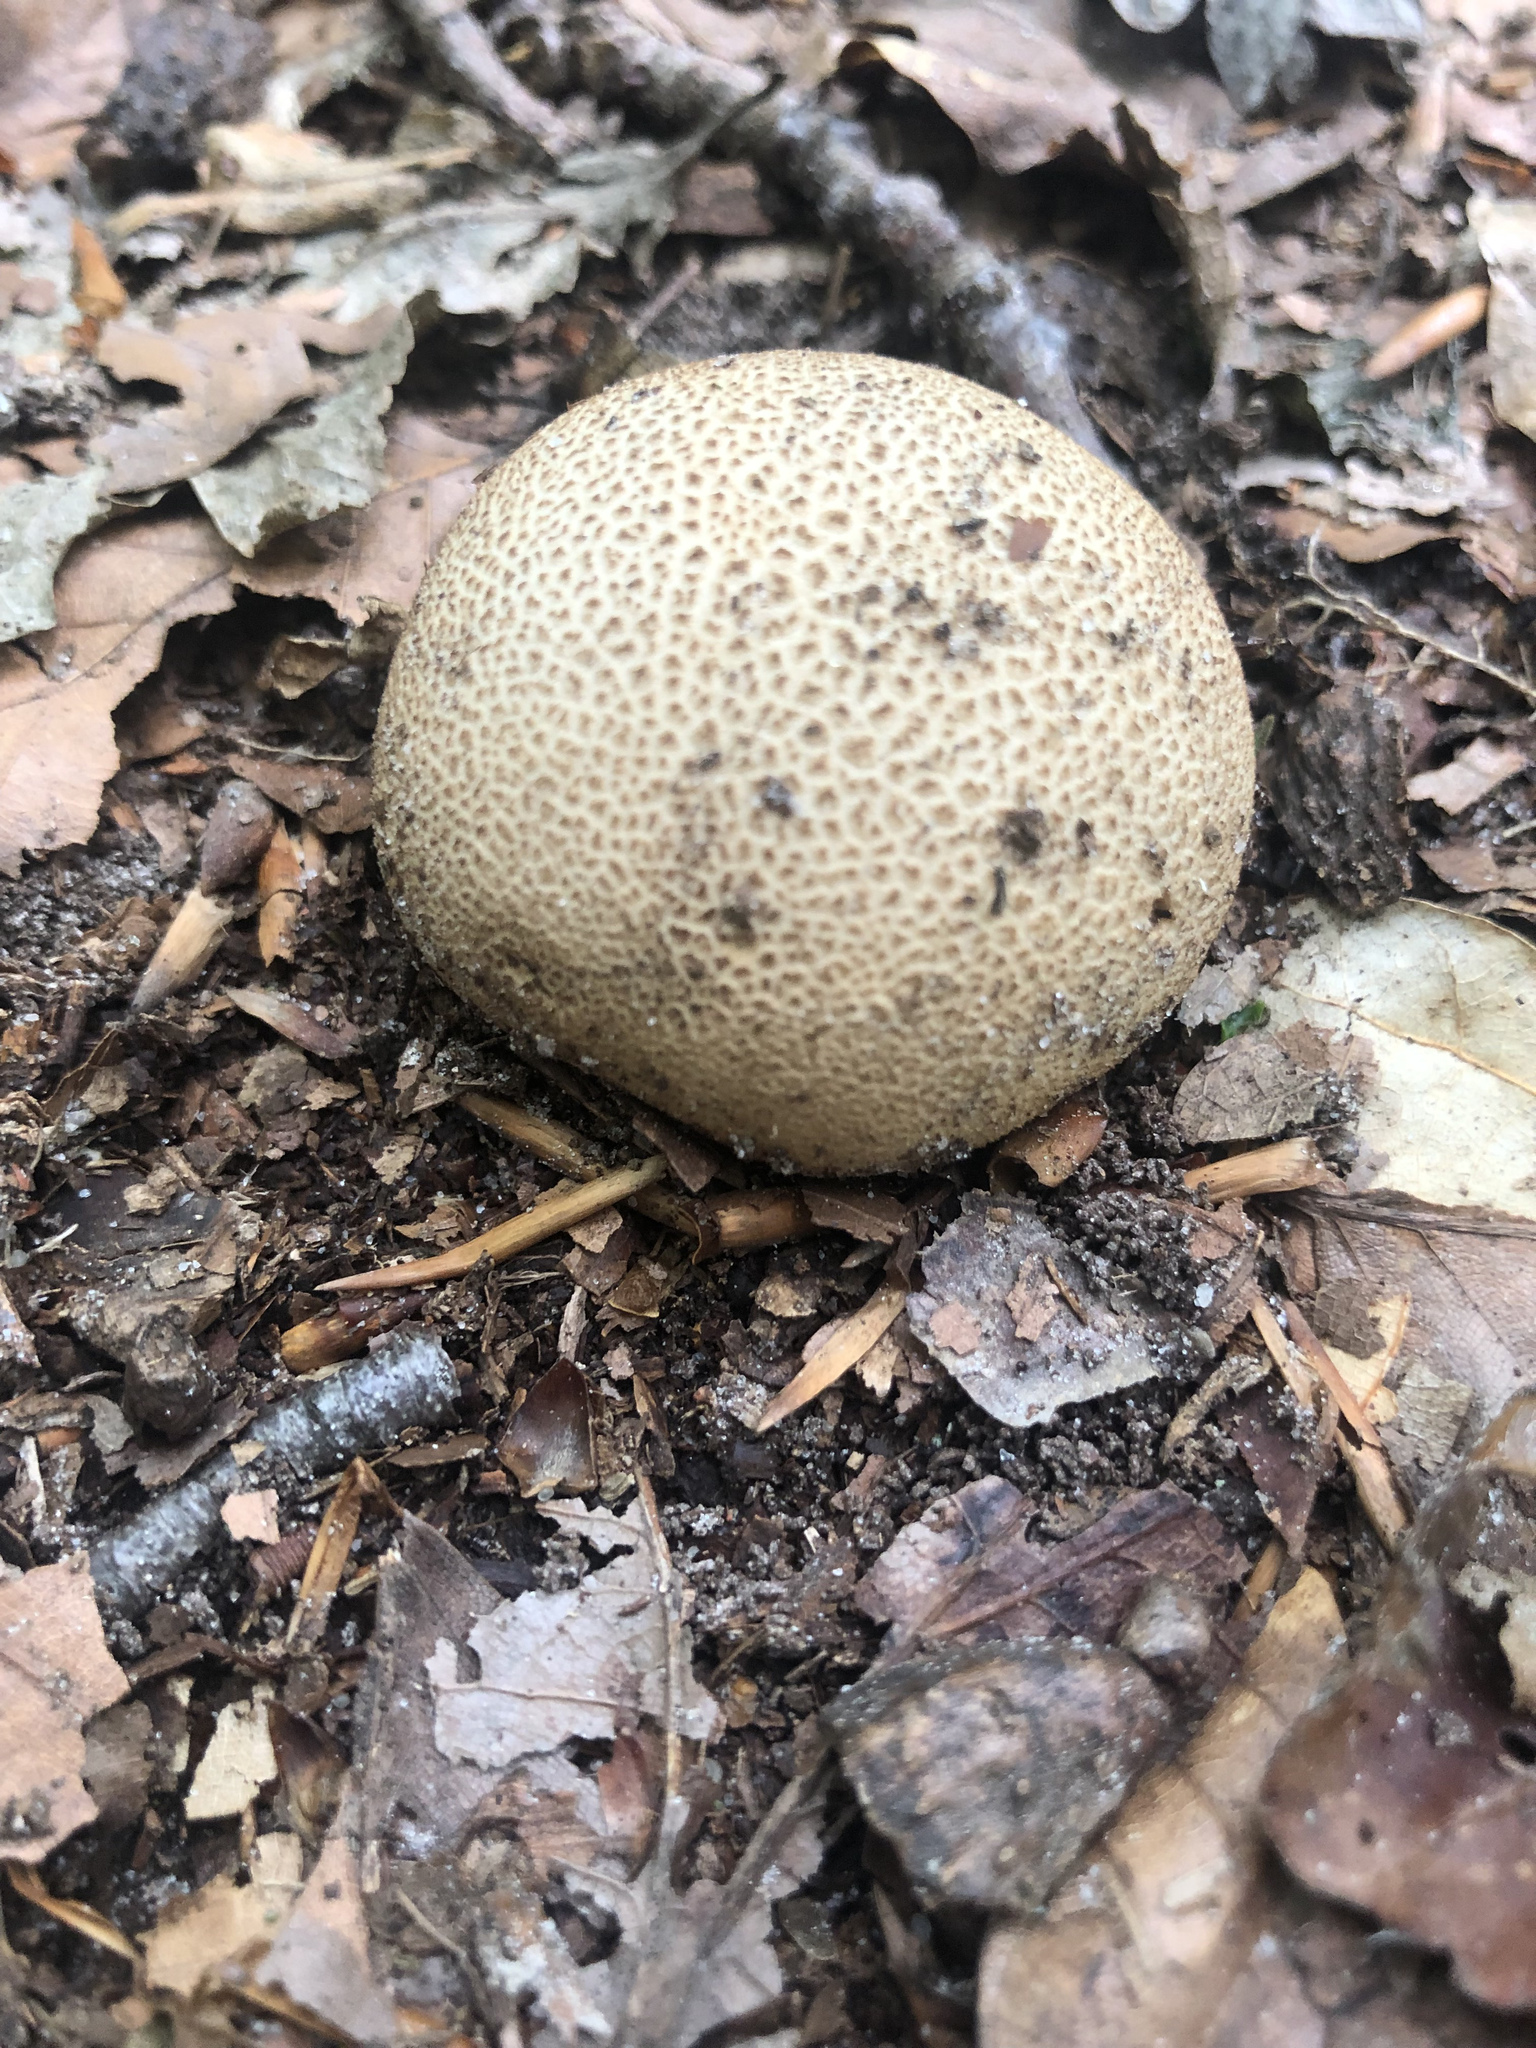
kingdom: Fungi
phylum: Basidiomycota
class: Agaricomycetes
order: Boletales
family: Sclerodermataceae
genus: Scleroderma
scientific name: Scleroderma citrinum
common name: Common earthball
